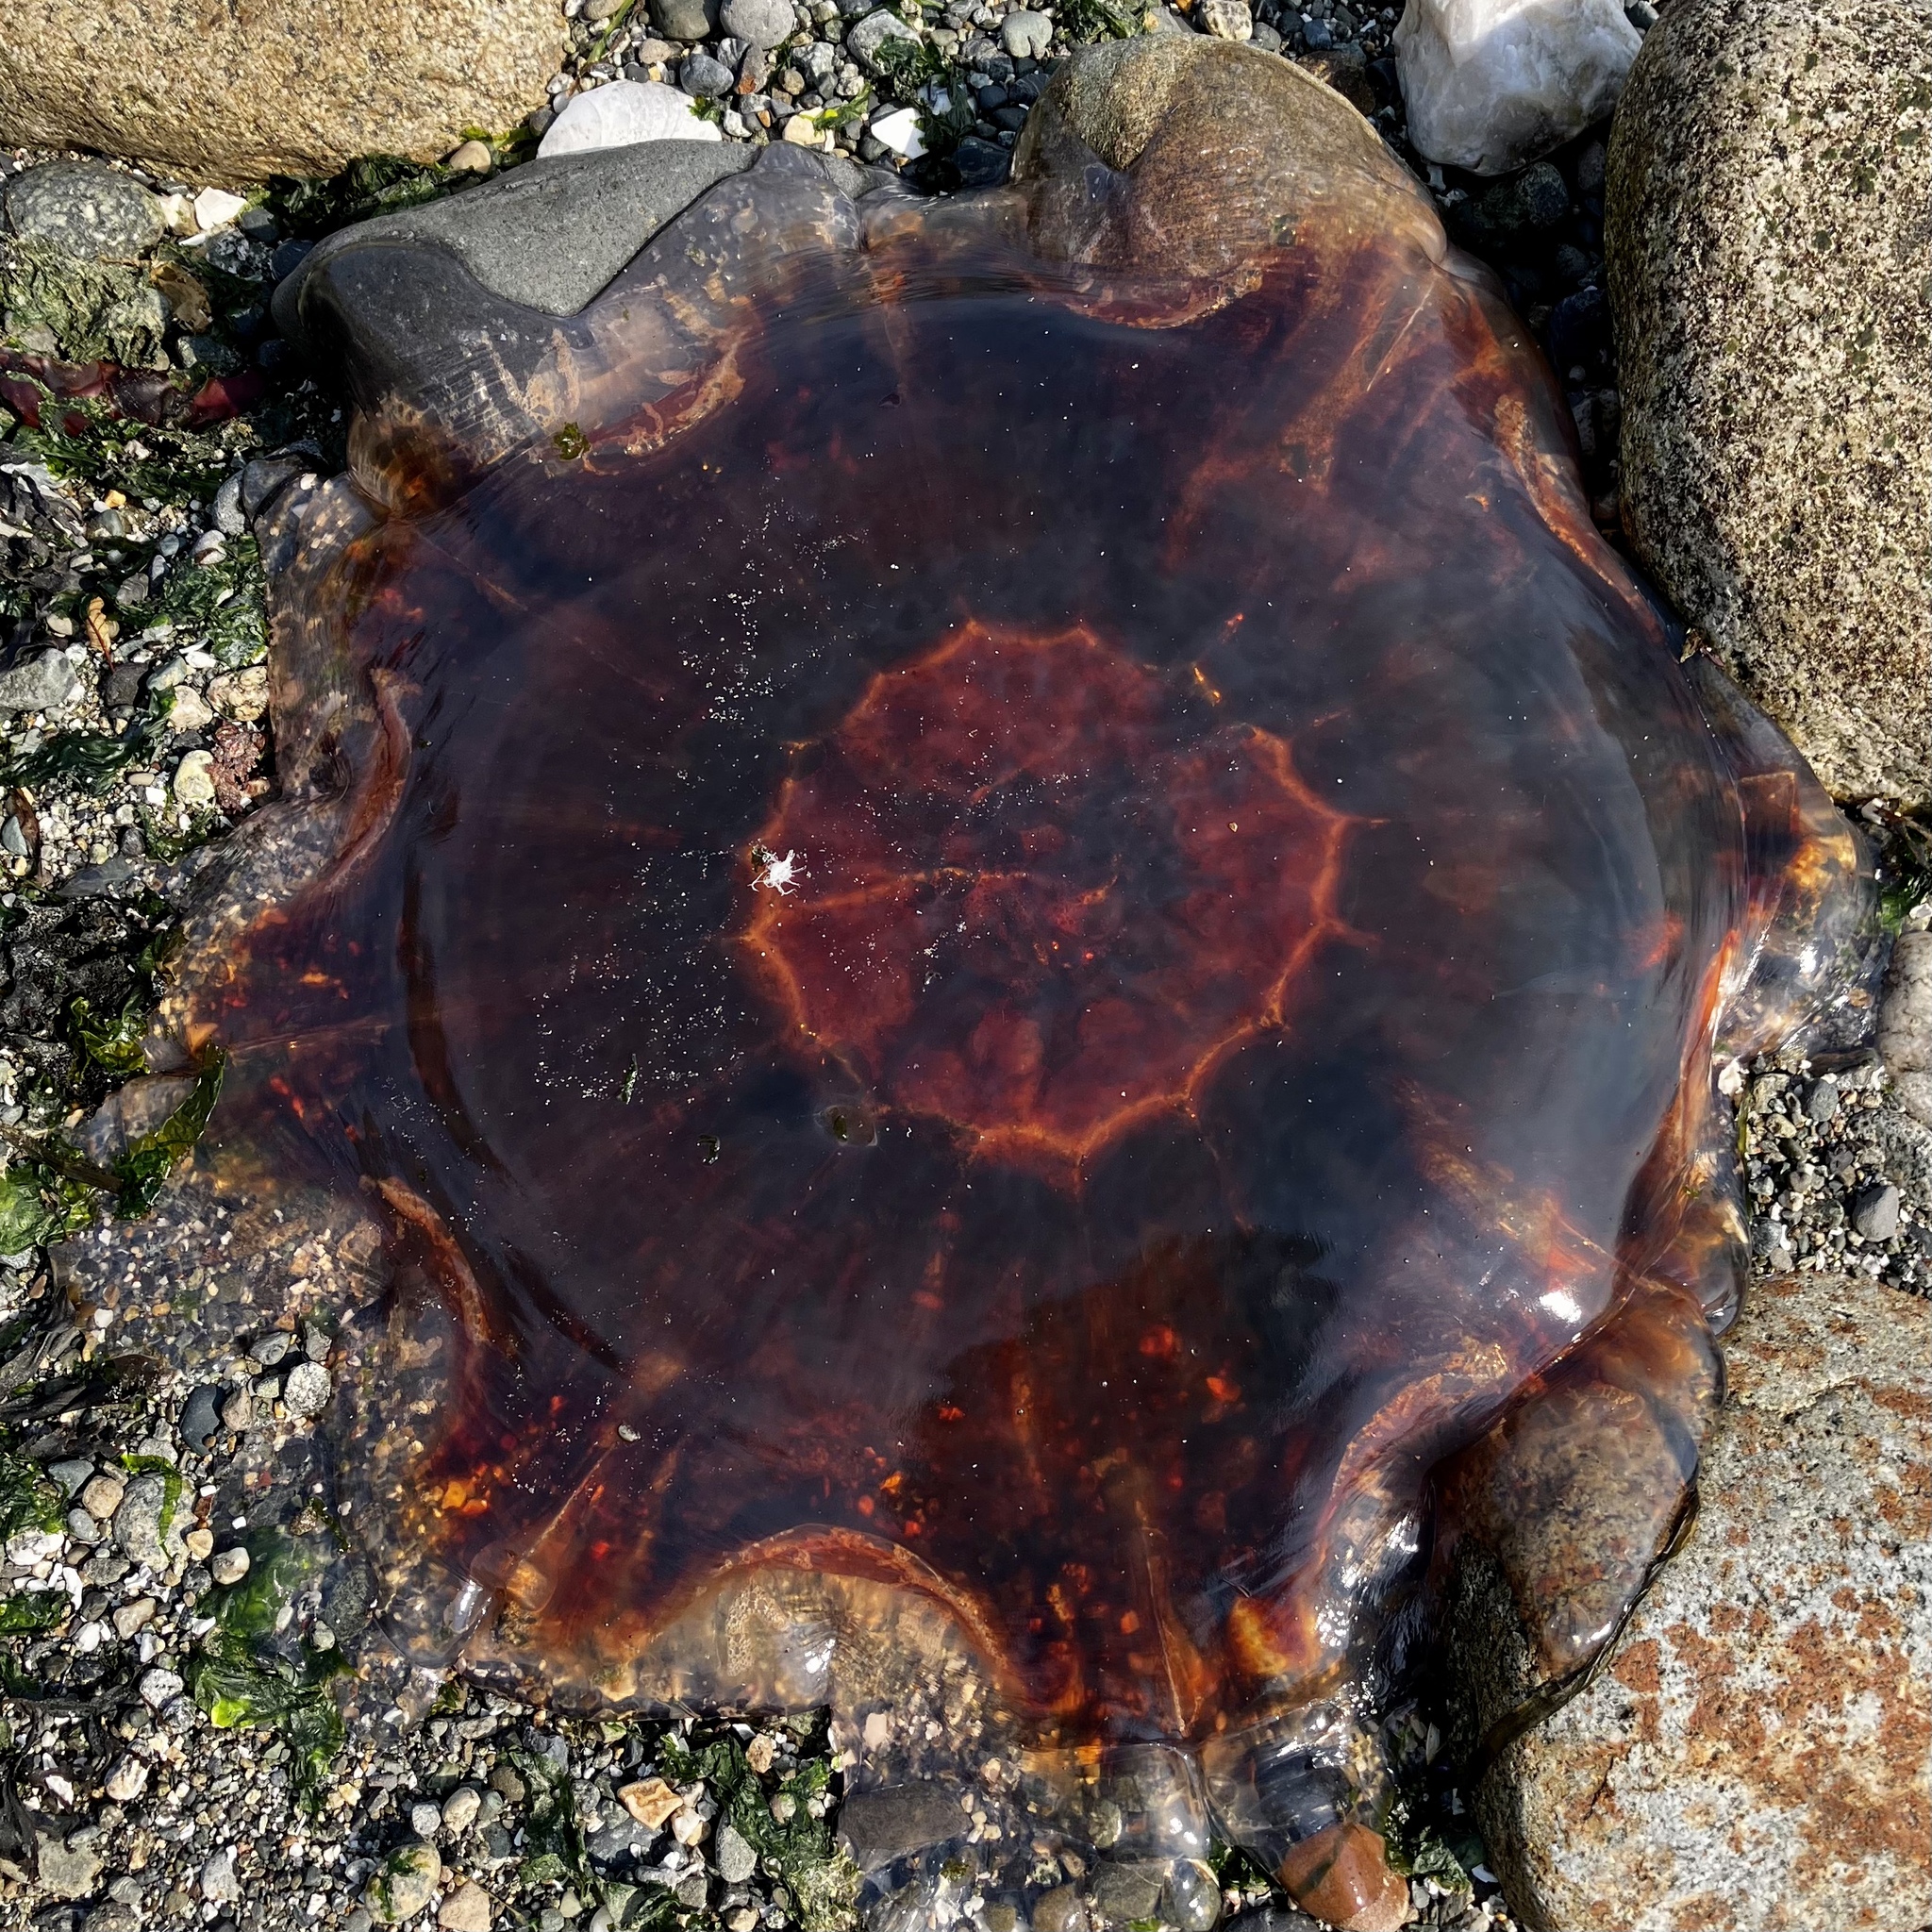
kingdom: Animalia
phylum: Cnidaria
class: Scyphozoa
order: Semaeostomeae
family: Cyaneidae
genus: Cyanea
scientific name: Cyanea ferruginea
